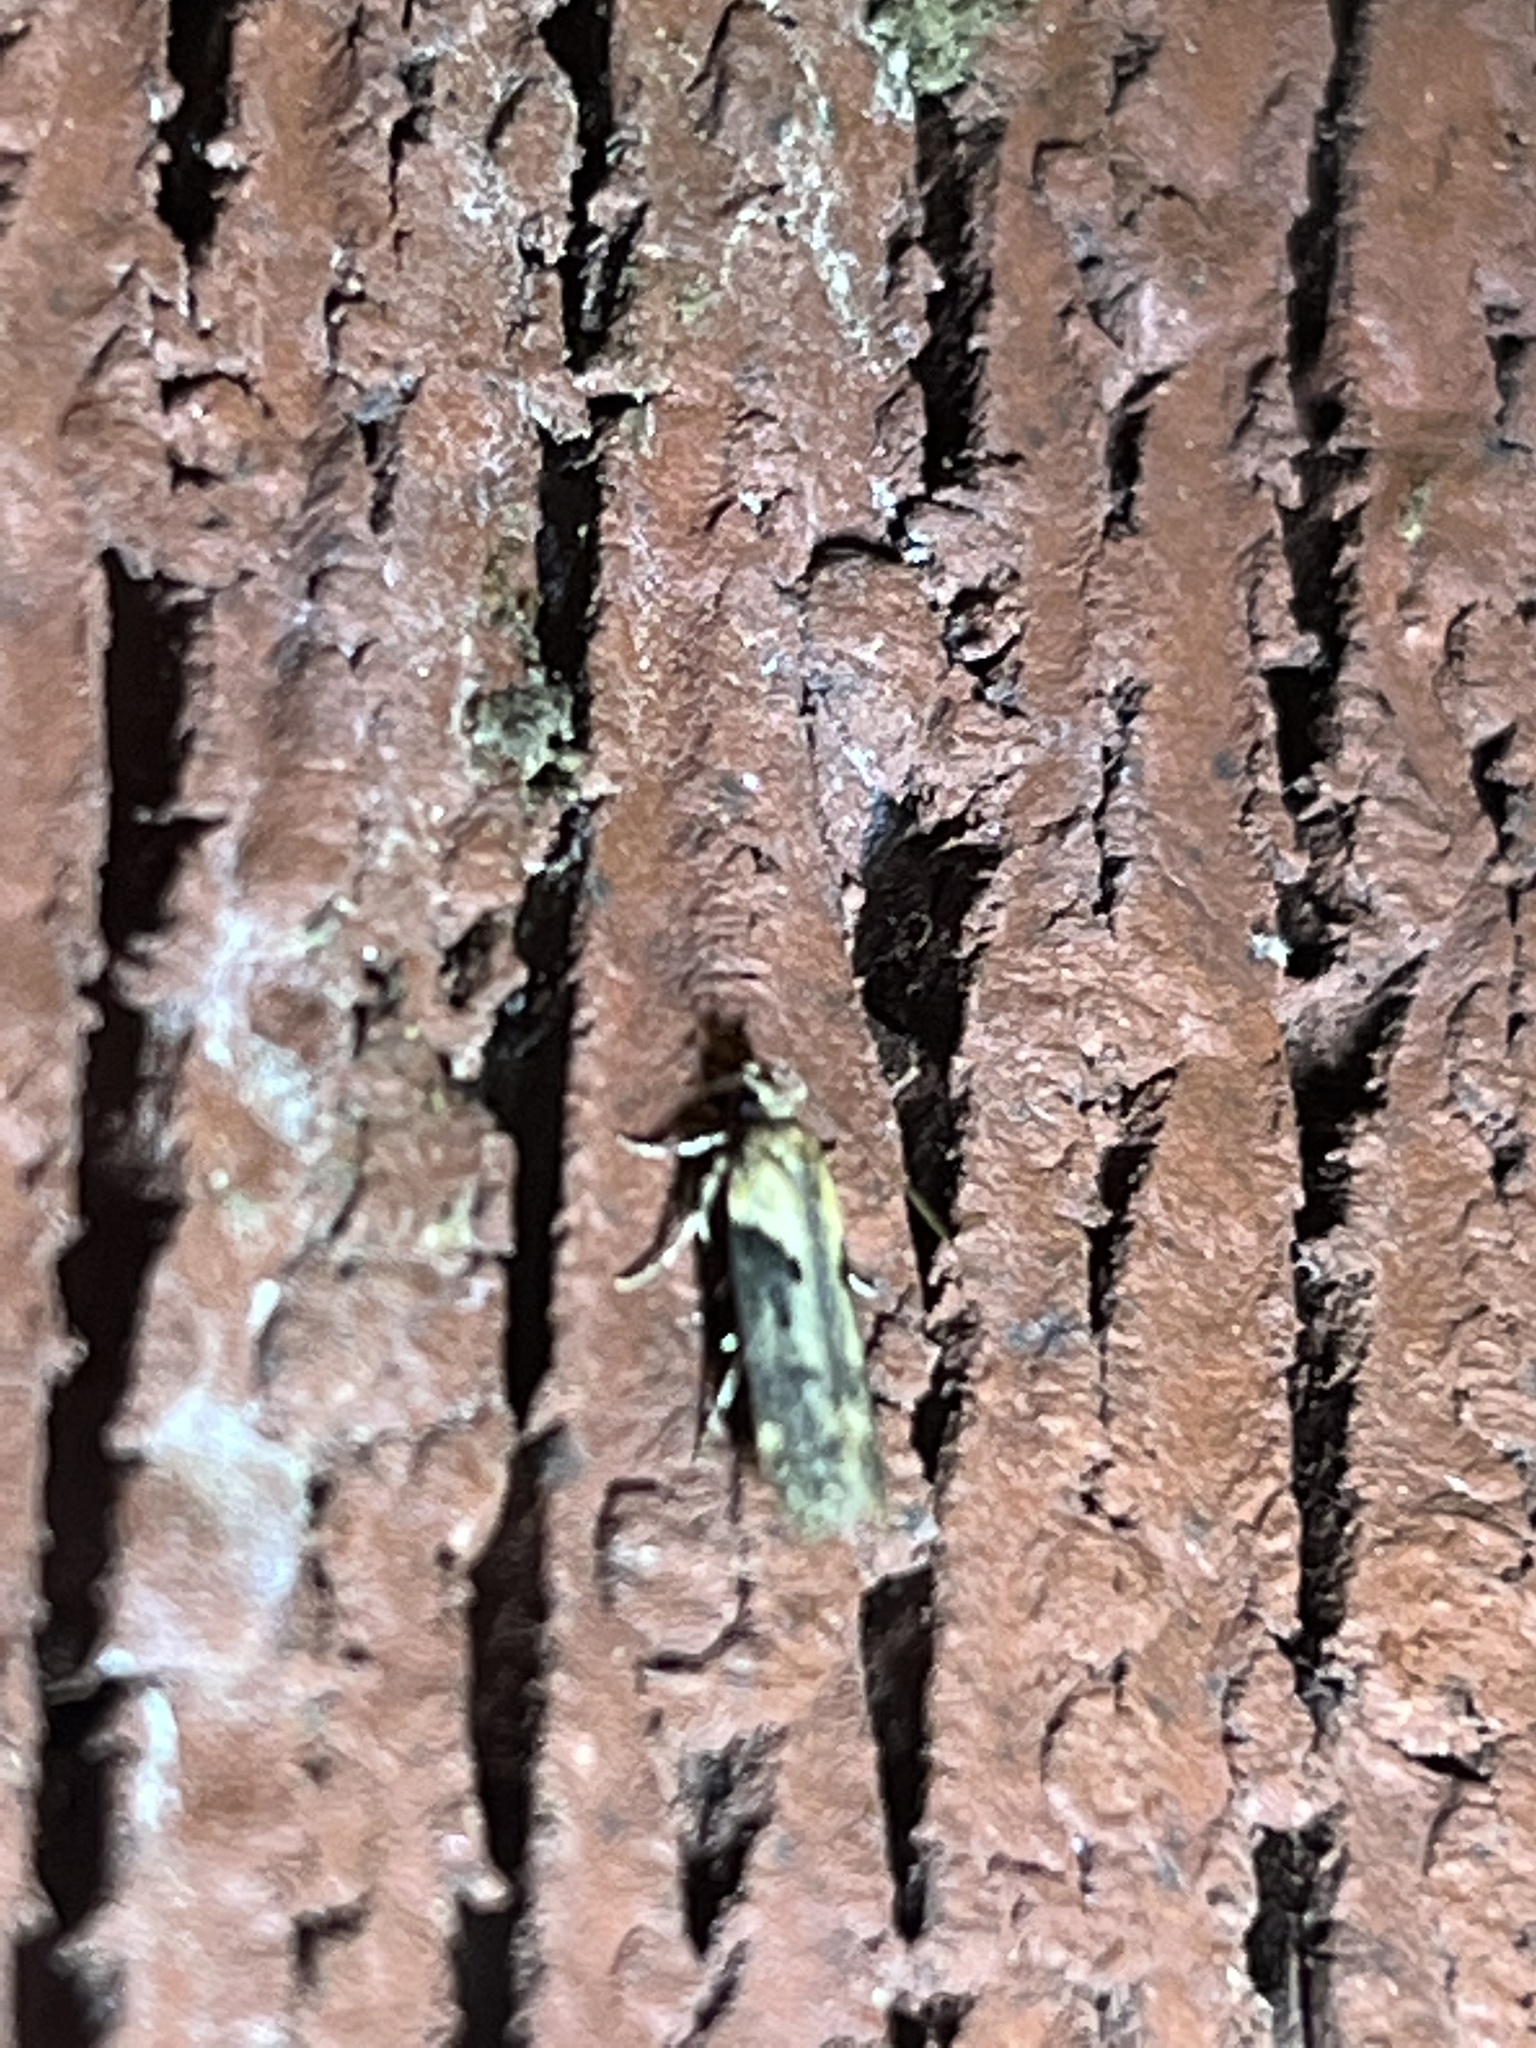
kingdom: Animalia
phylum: Arthropoda
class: Insecta
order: Lepidoptera
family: Gelechiidae
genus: Chionodes
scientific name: Chionodes mediofuscella
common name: Black-smudged chionodes moth
